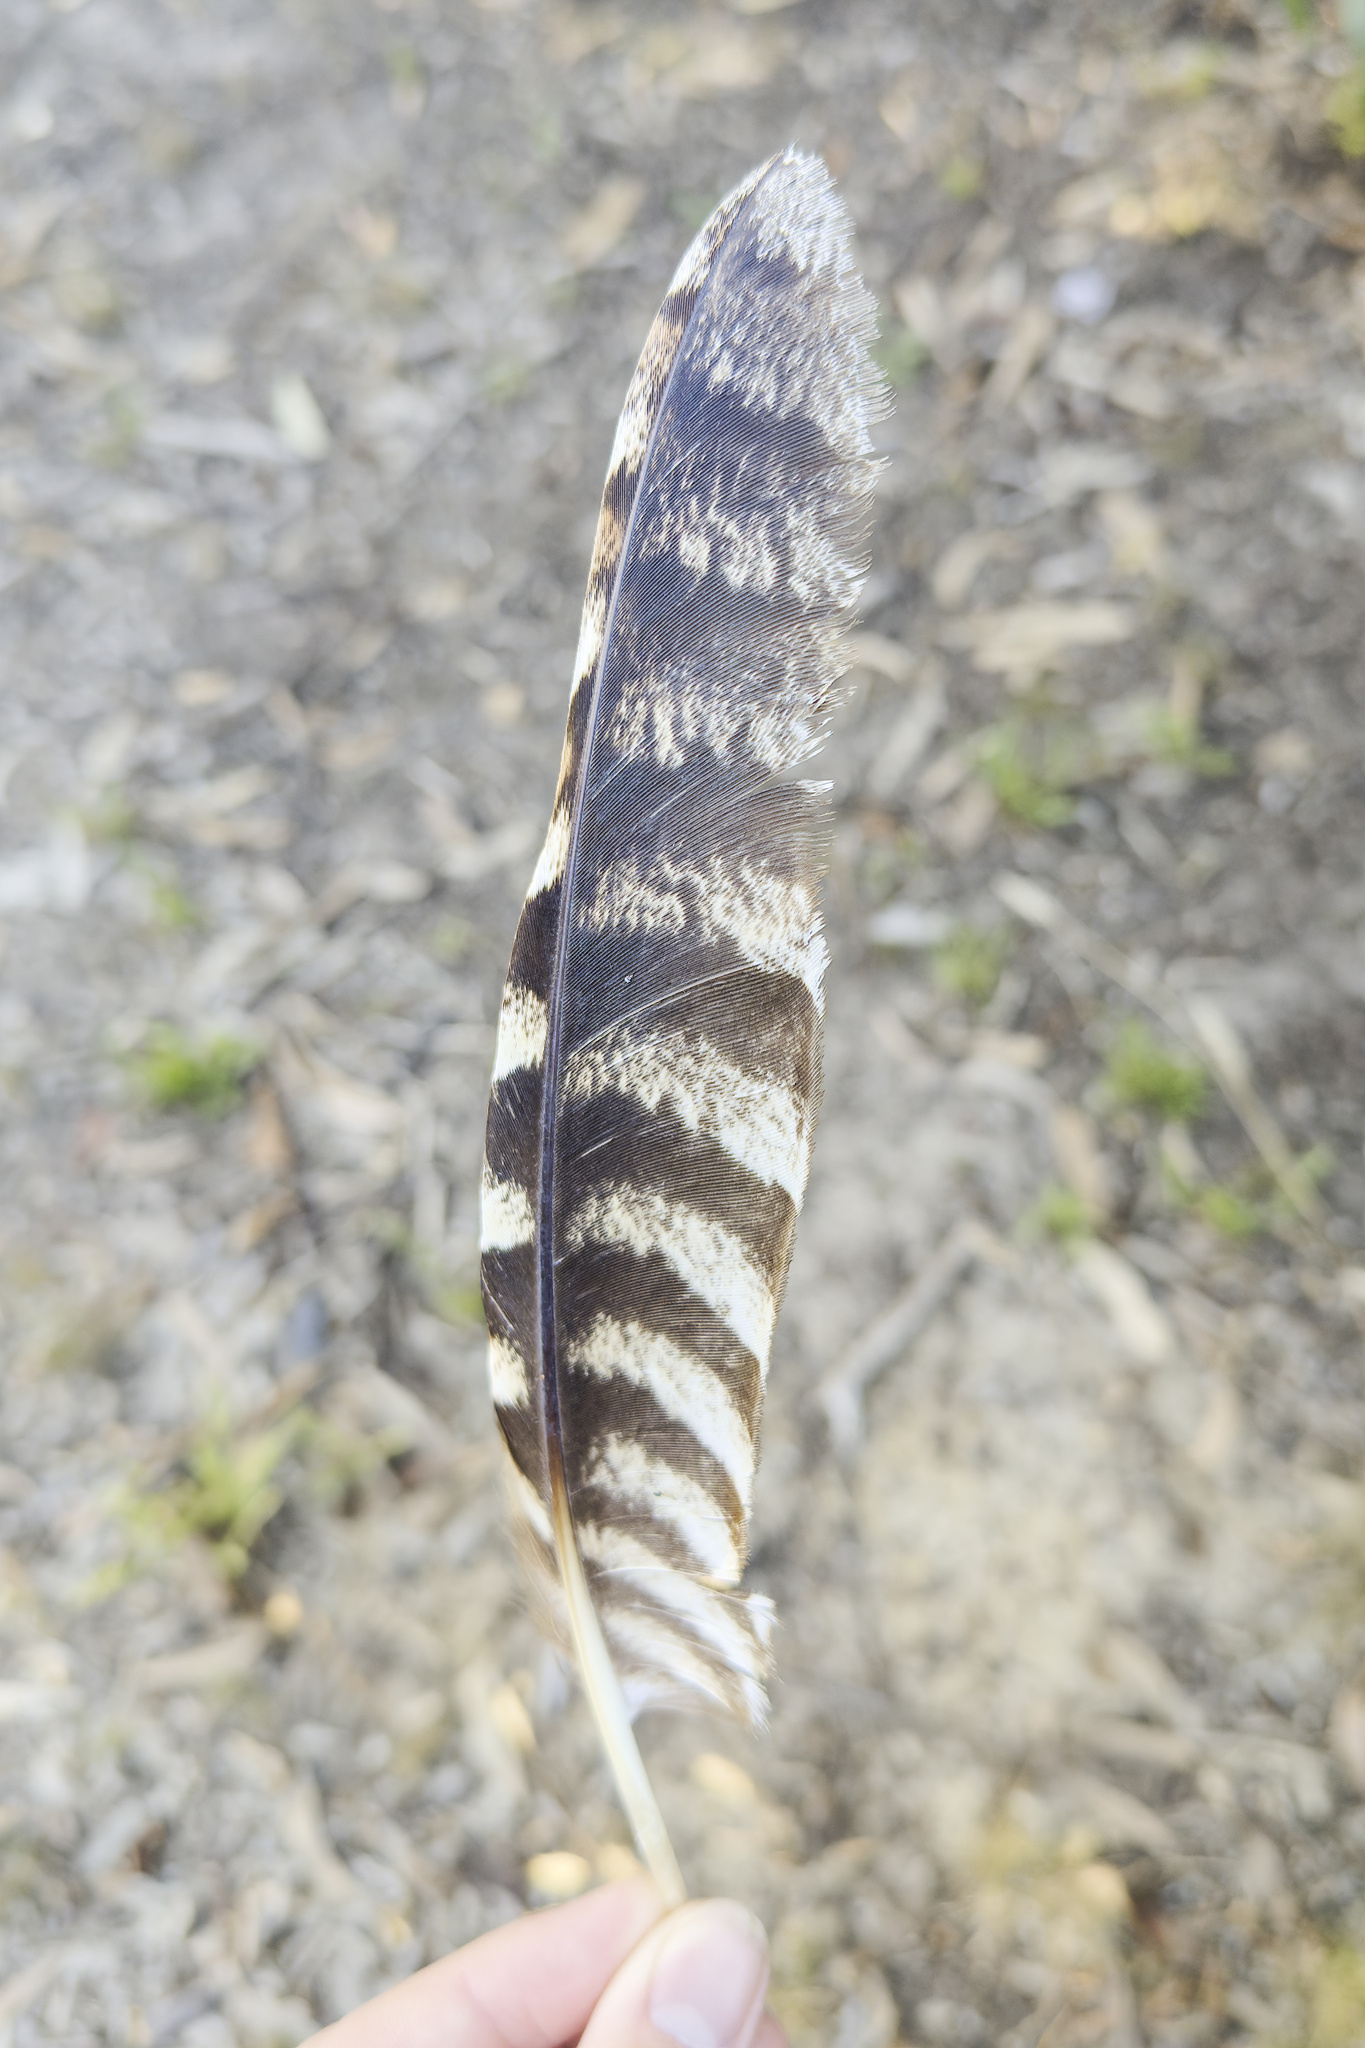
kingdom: Animalia
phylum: Chordata
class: Aves
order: Caprimulgiformes
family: Podargidae
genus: Podargus
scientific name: Podargus strigoides
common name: Tawny frogmouth
